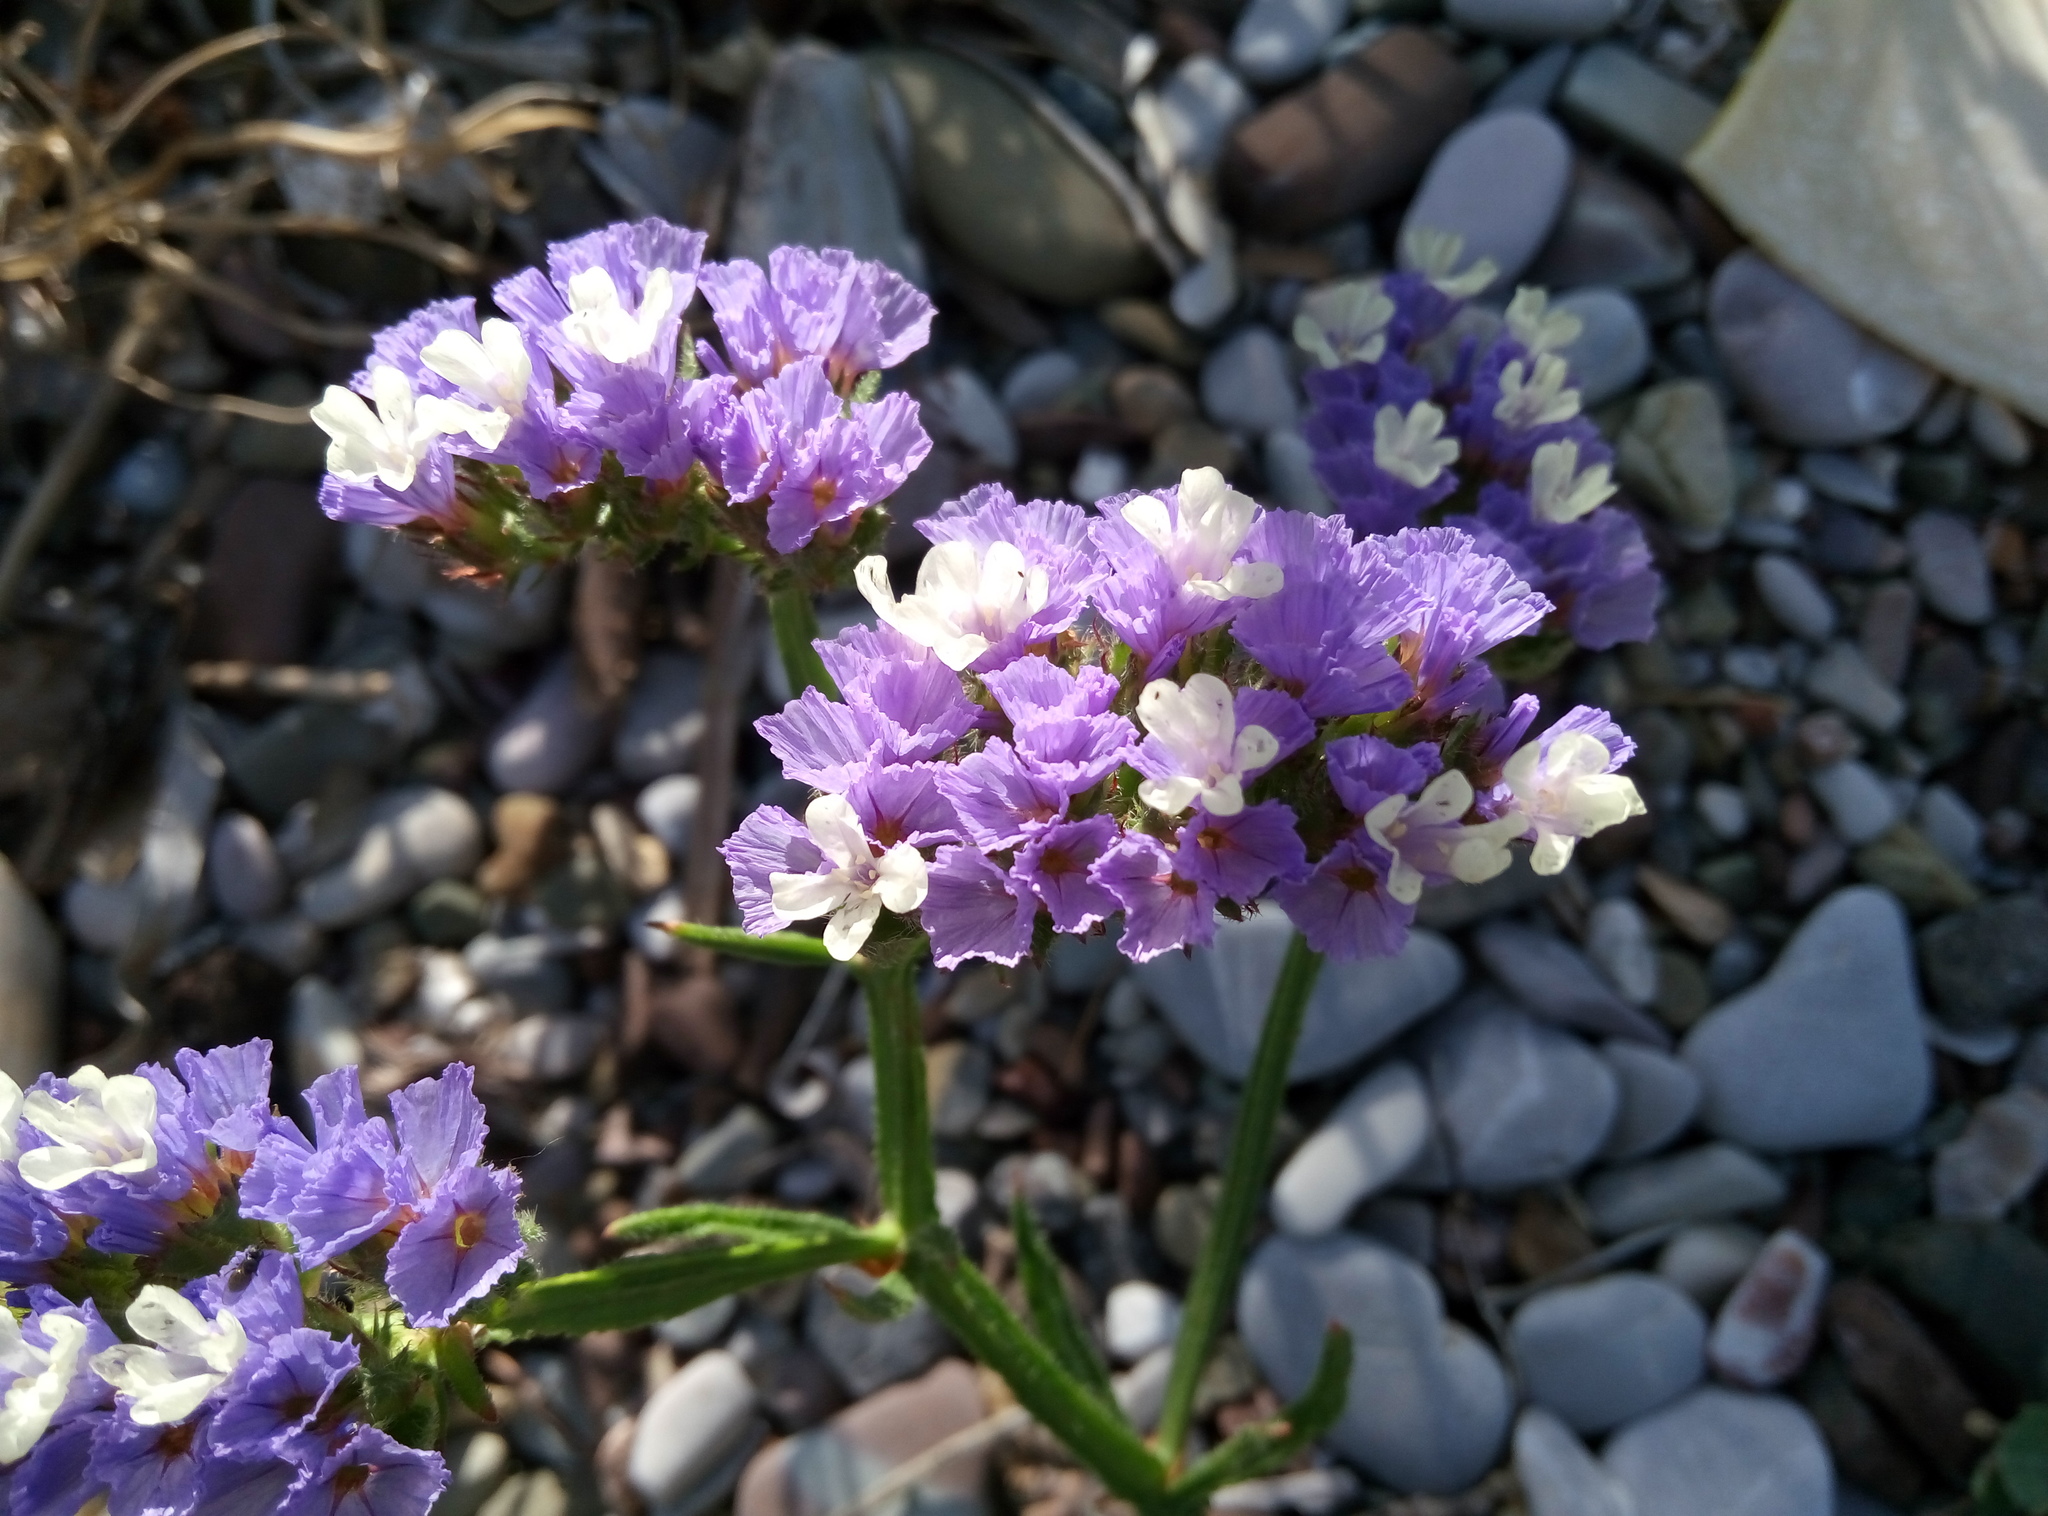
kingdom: Plantae
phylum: Tracheophyta
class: Magnoliopsida
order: Caryophyllales
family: Plumbaginaceae
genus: Limonium
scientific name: Limonium sinuatum
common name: Statice
